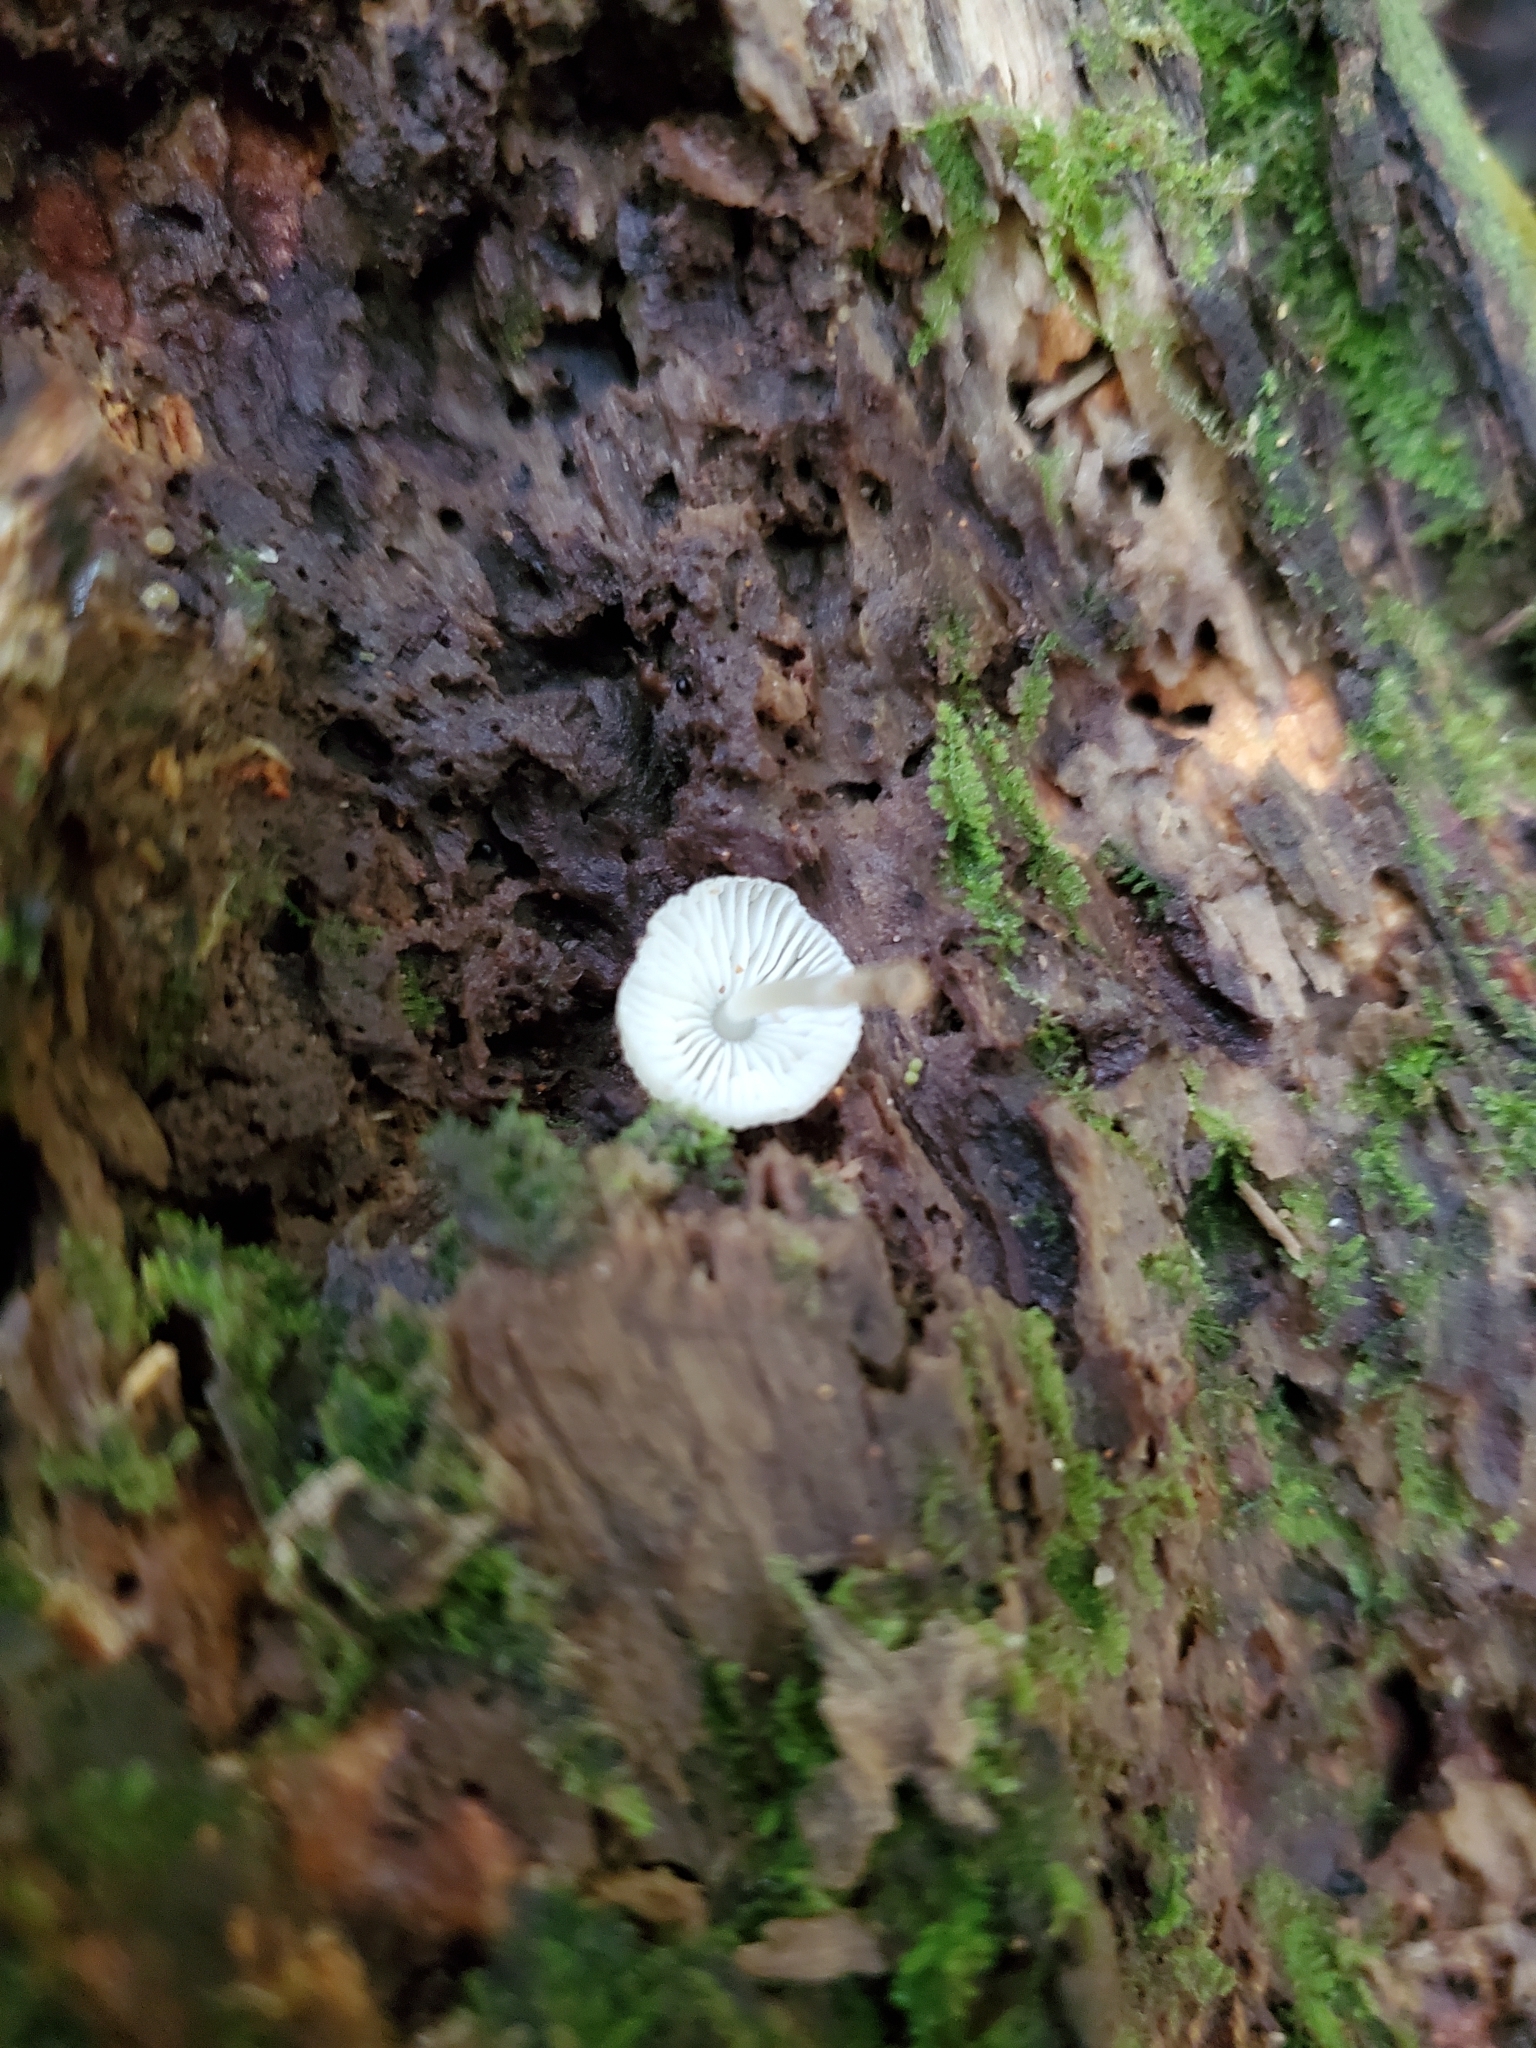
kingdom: Fungi
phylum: Basidiomycota
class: Agaricomycetes
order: Agaricales
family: Mycenaceae
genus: Mycena
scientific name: Mycena interrupta
